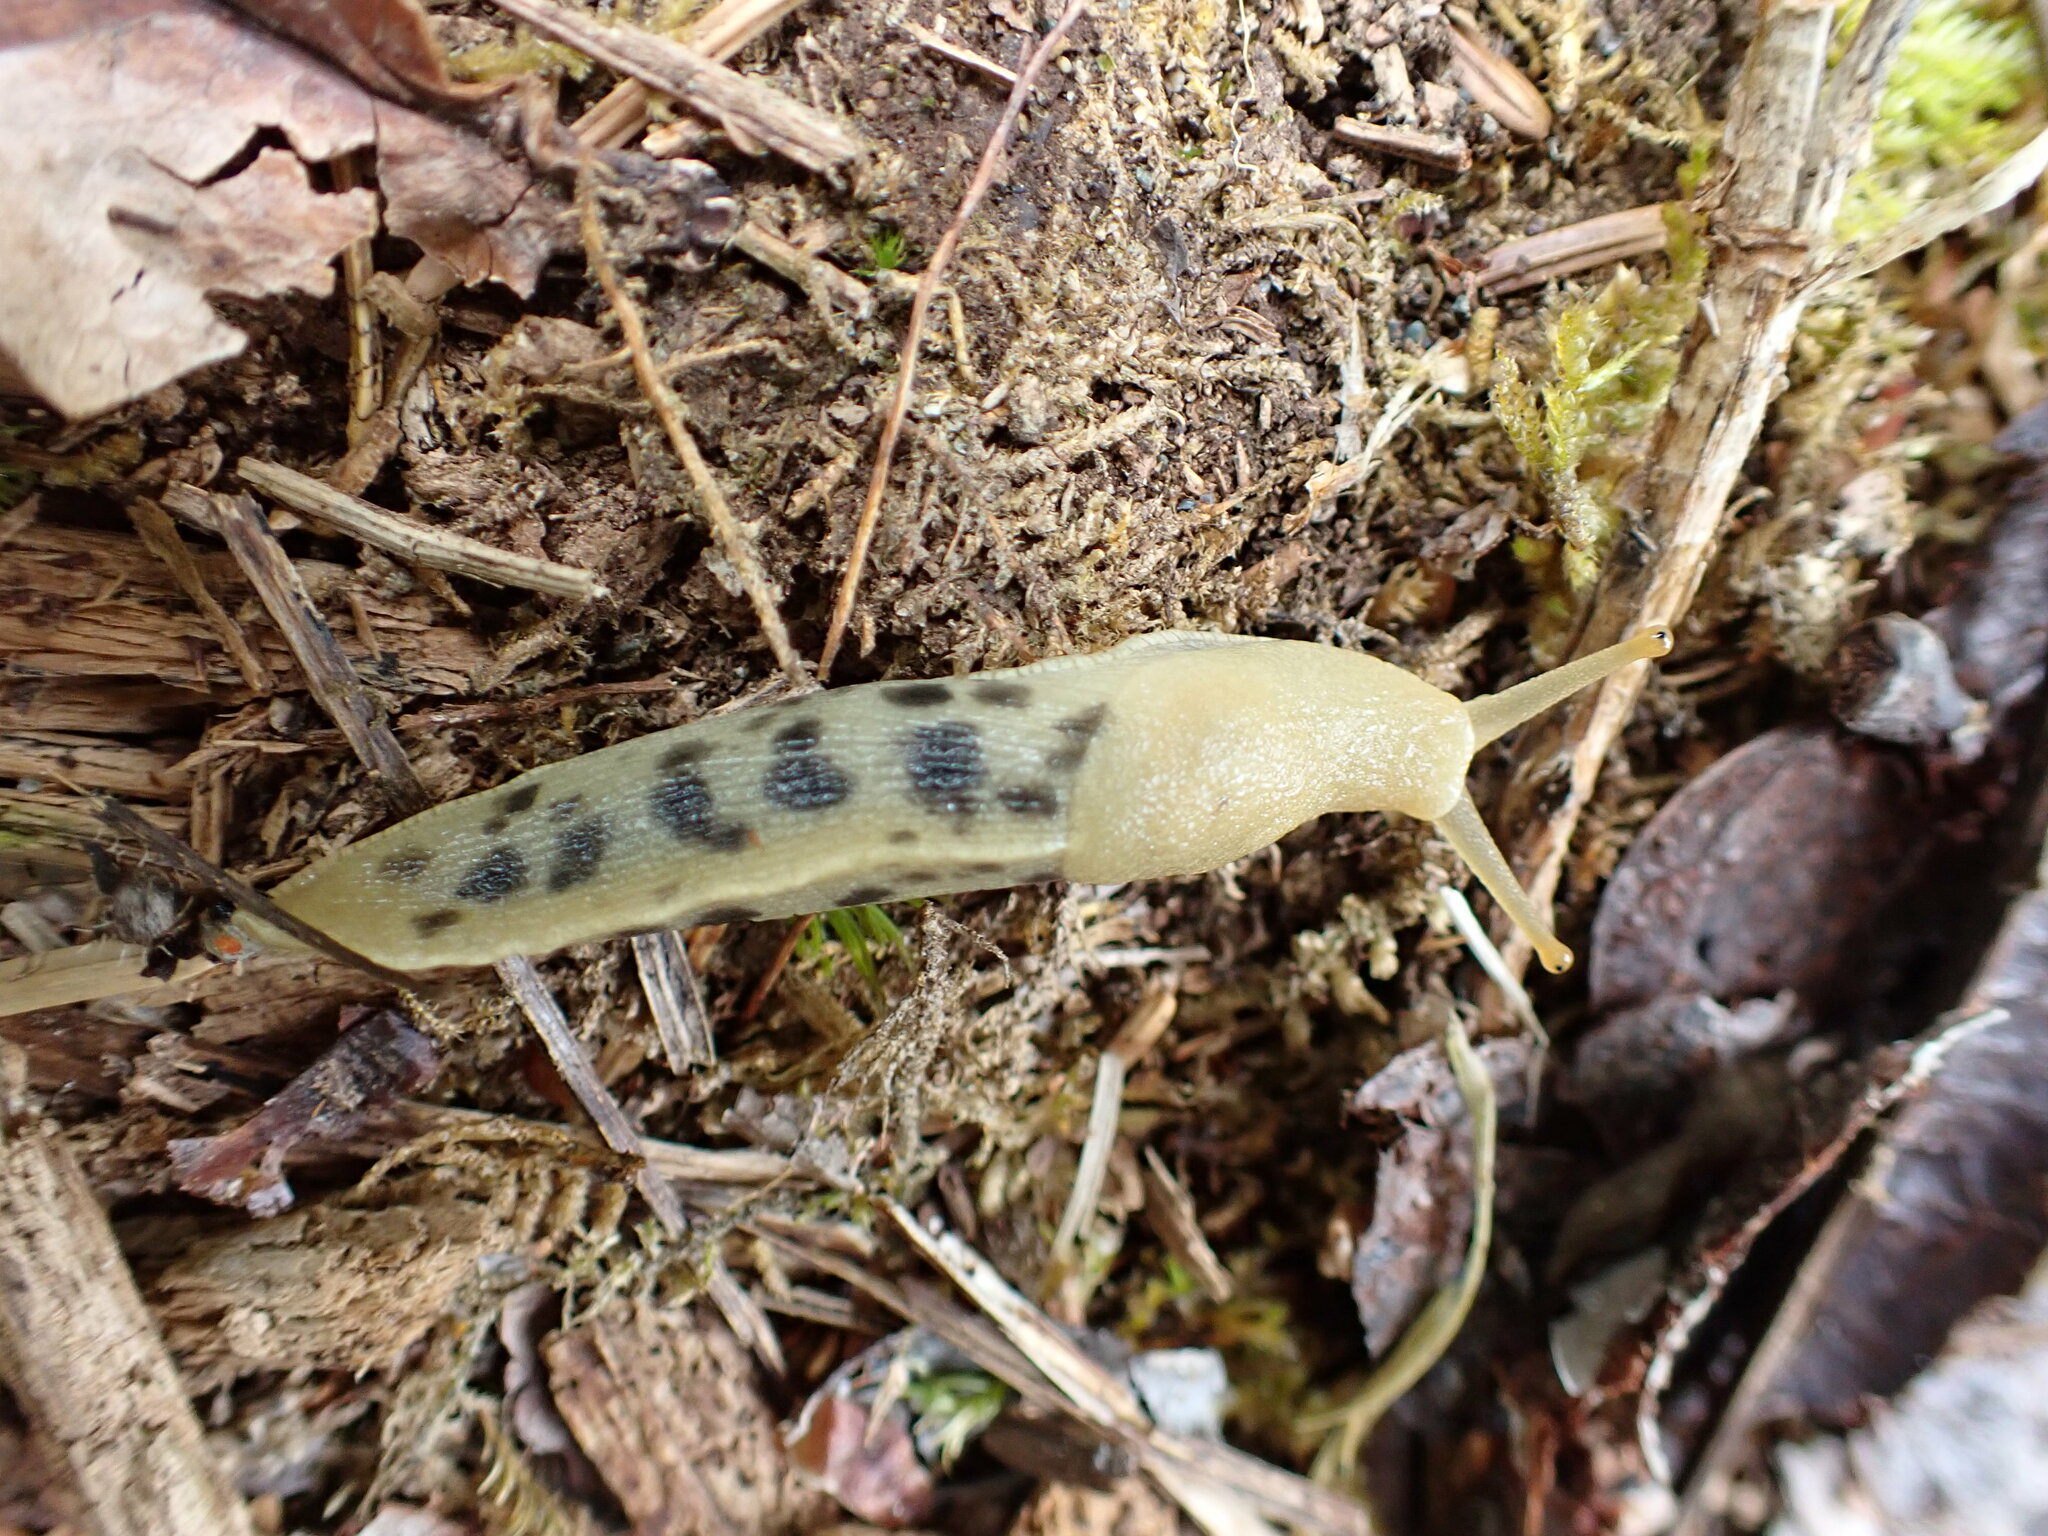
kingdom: Animalia
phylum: Mollusca
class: Gastropoda
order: Stylommatophora
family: Ariolimacidae
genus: Ariolimax
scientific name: Ariolimax columbianus
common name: Pacific banana slug
